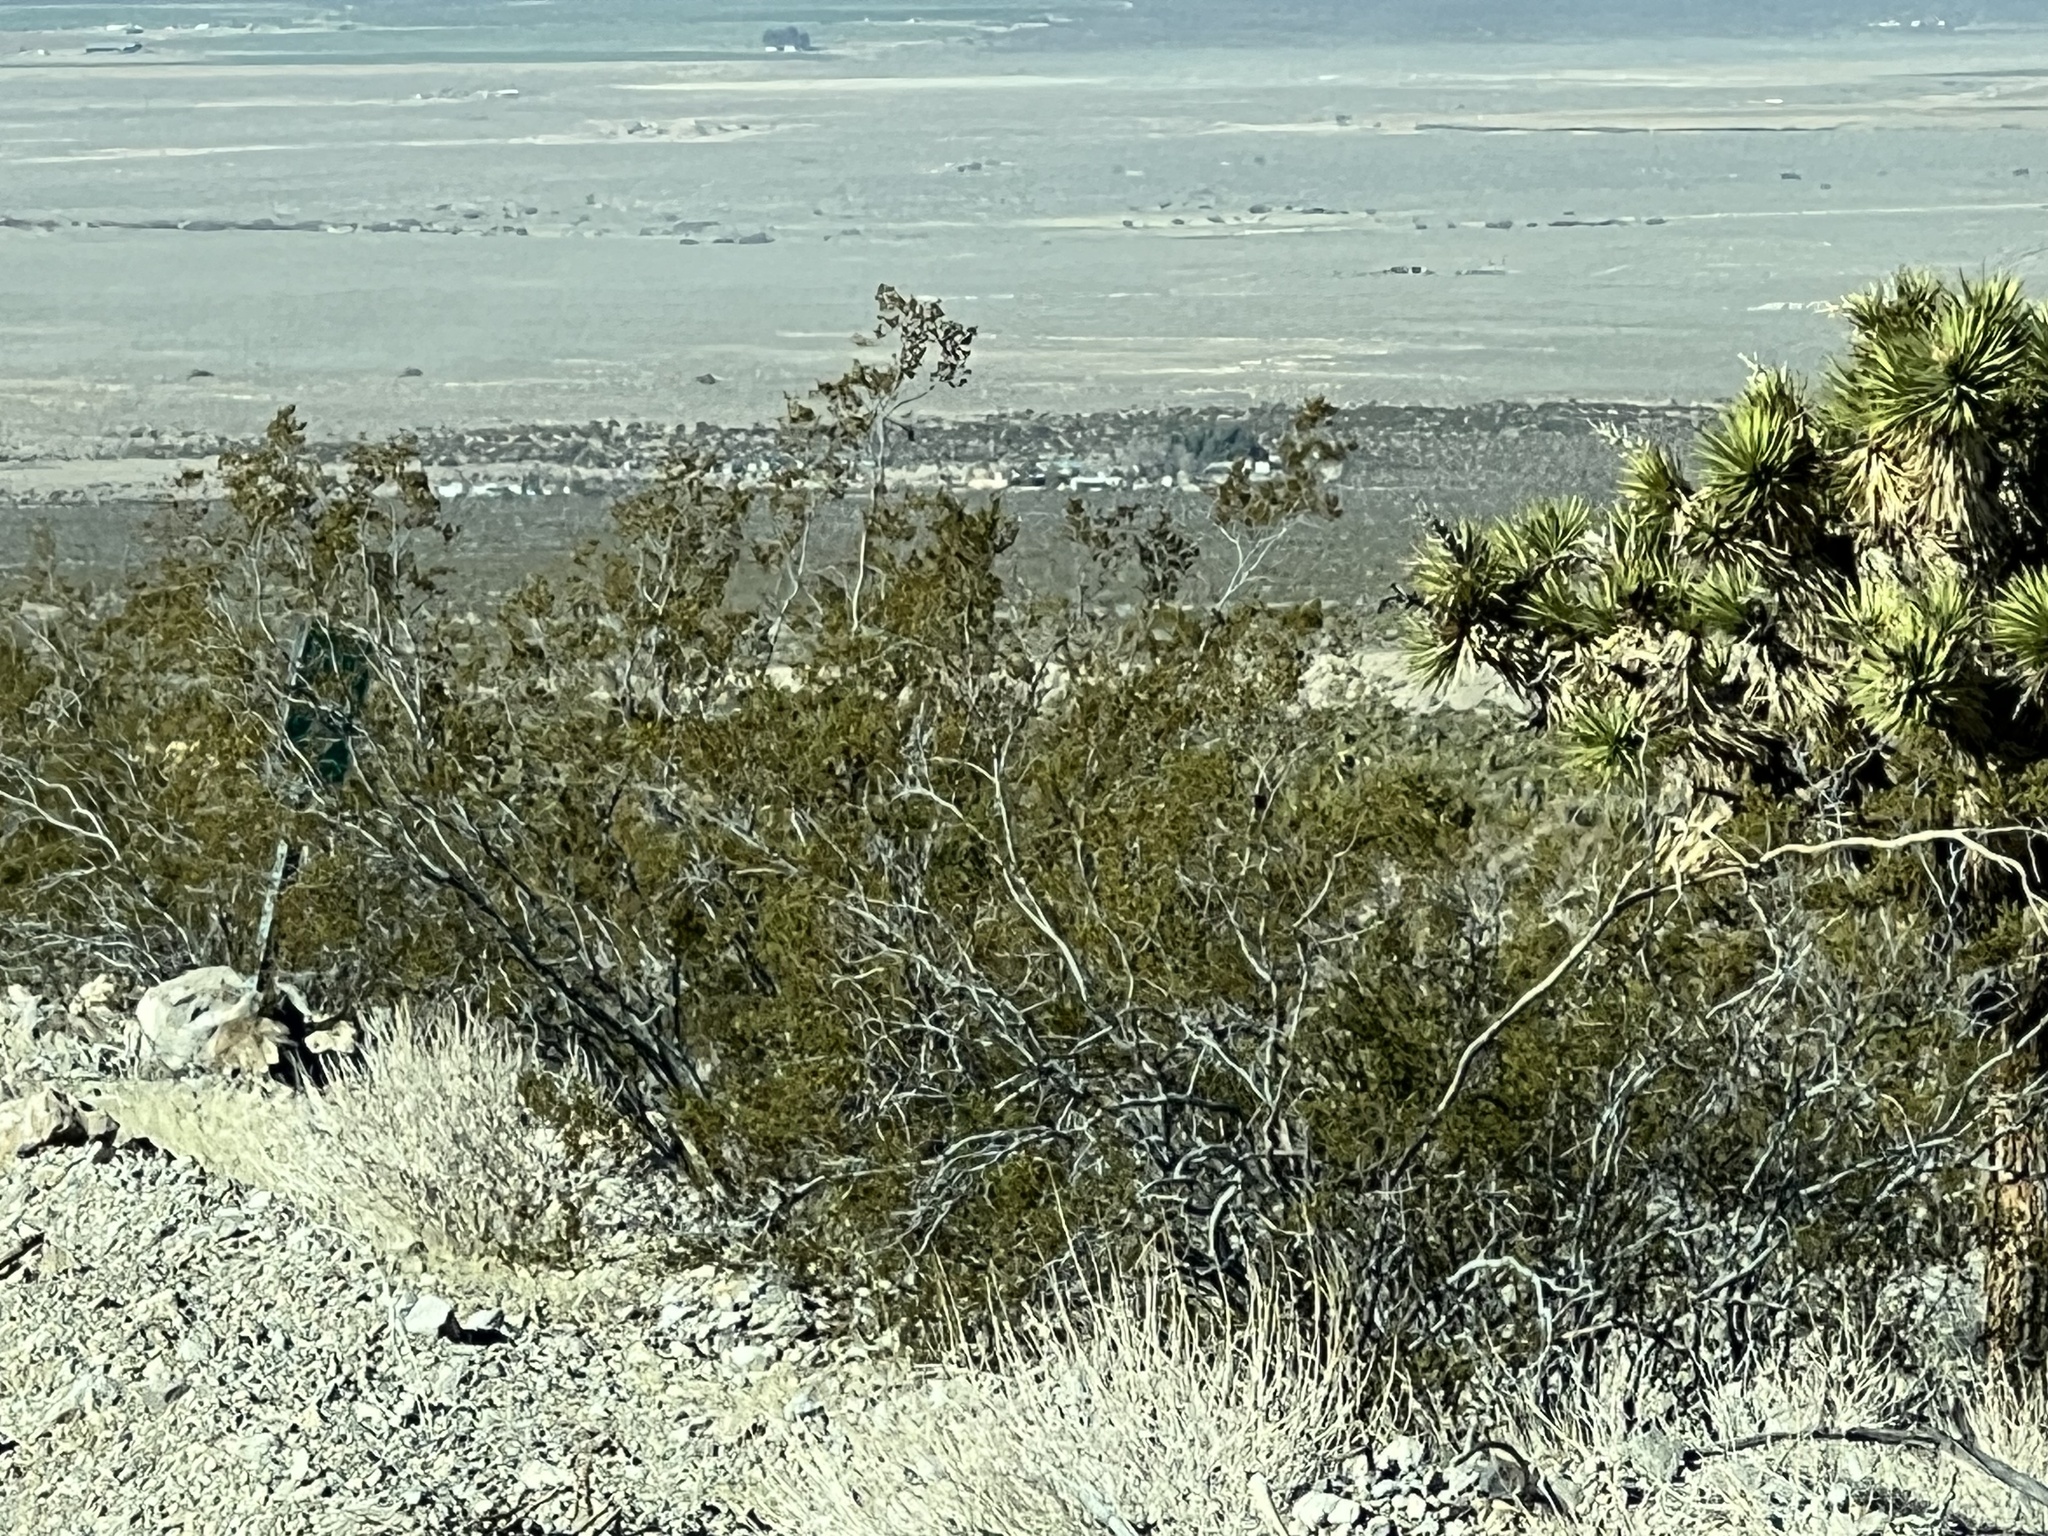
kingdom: Plantae
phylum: Tracheophyta
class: Magnoliopsida
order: Zygophyllales
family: Zygophyllaceae
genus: Larrea
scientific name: Larrea tridentata
